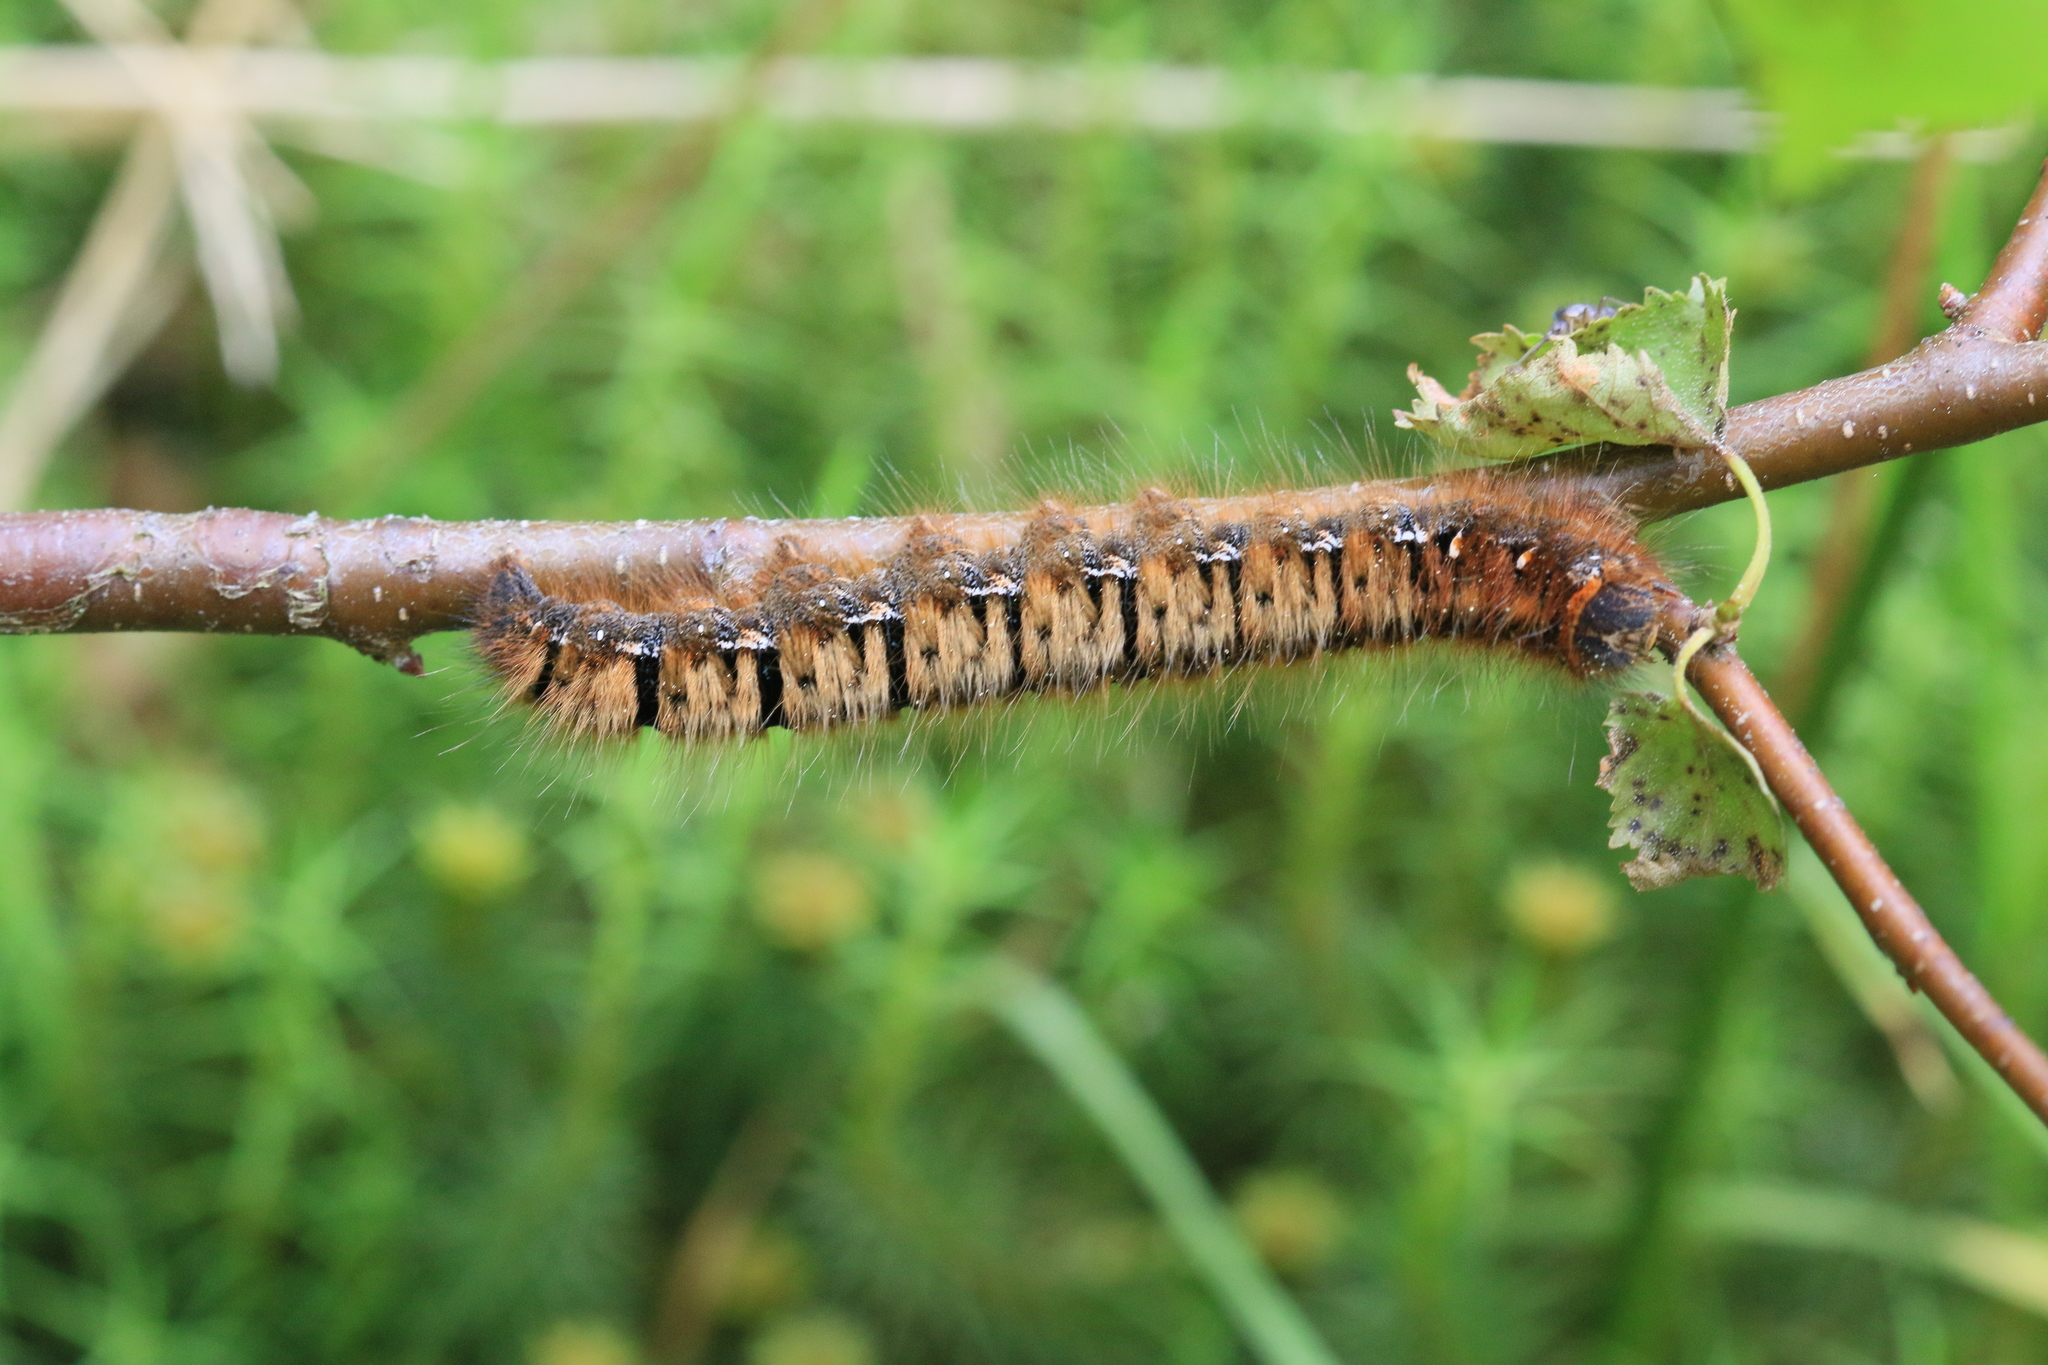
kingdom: Animalia
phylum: Arthropoda
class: Insecta
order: Lepidoptera
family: Lasiocampidae
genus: Lasiocampa
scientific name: Lasiocampa quercus
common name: Oak eggar
